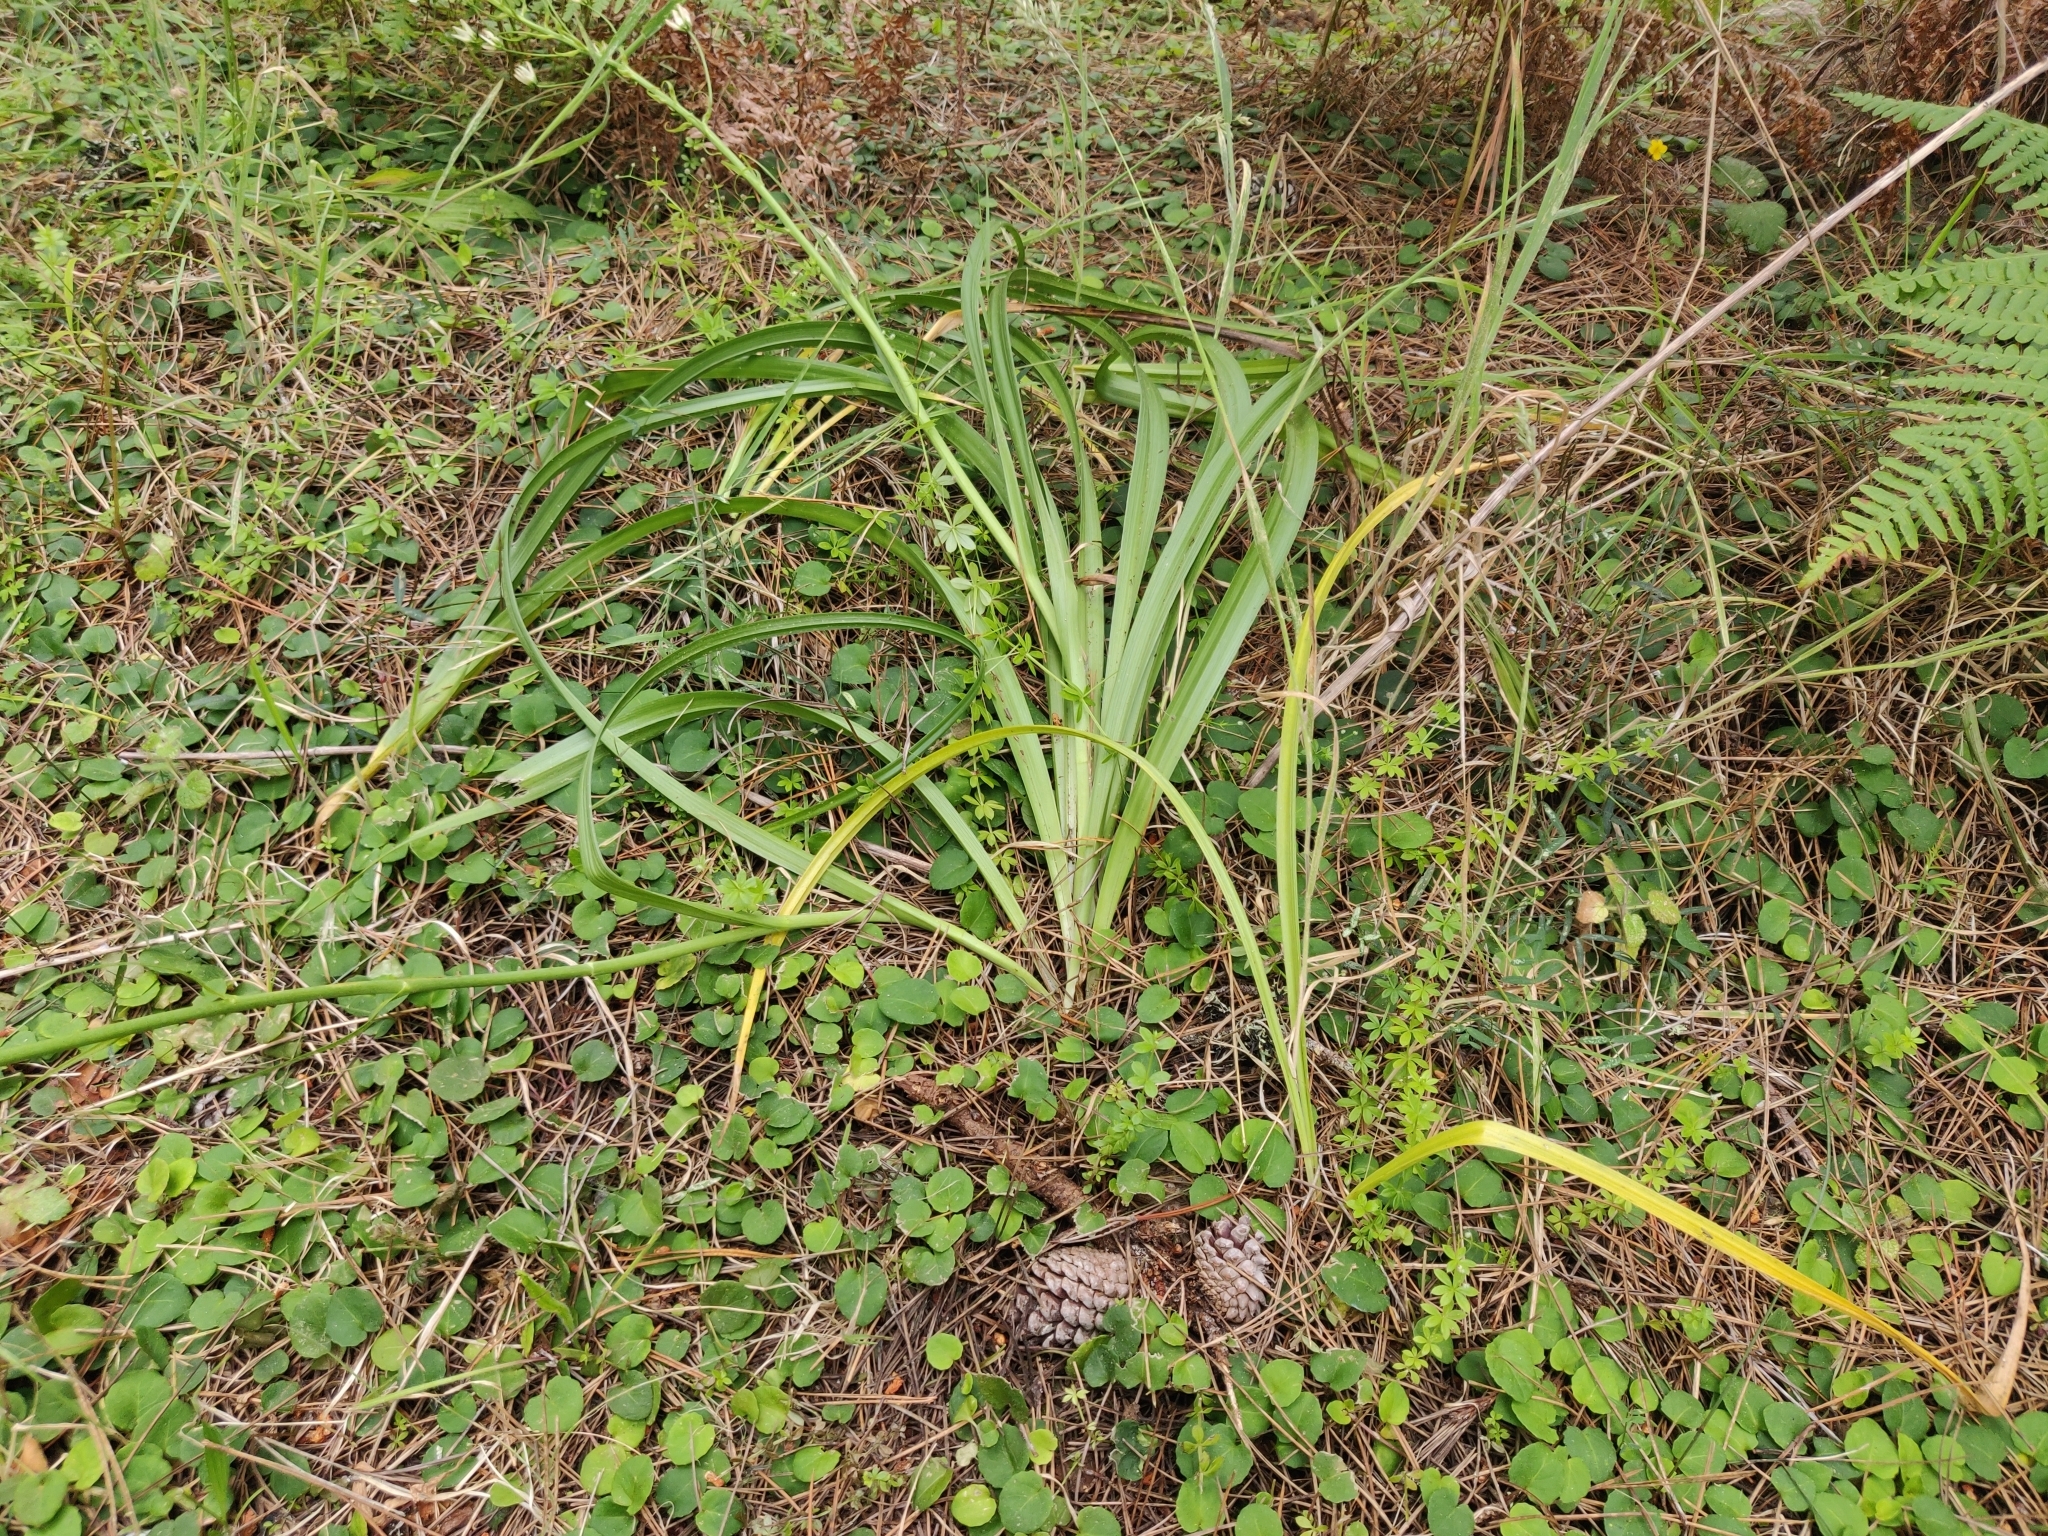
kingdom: Plantae
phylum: Tracheophyta
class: Liliopsida
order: Liliales
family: Melanthiaceae
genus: Toxicoscordion
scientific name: Toxicoscordion fremontii
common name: Fremont's death camas
